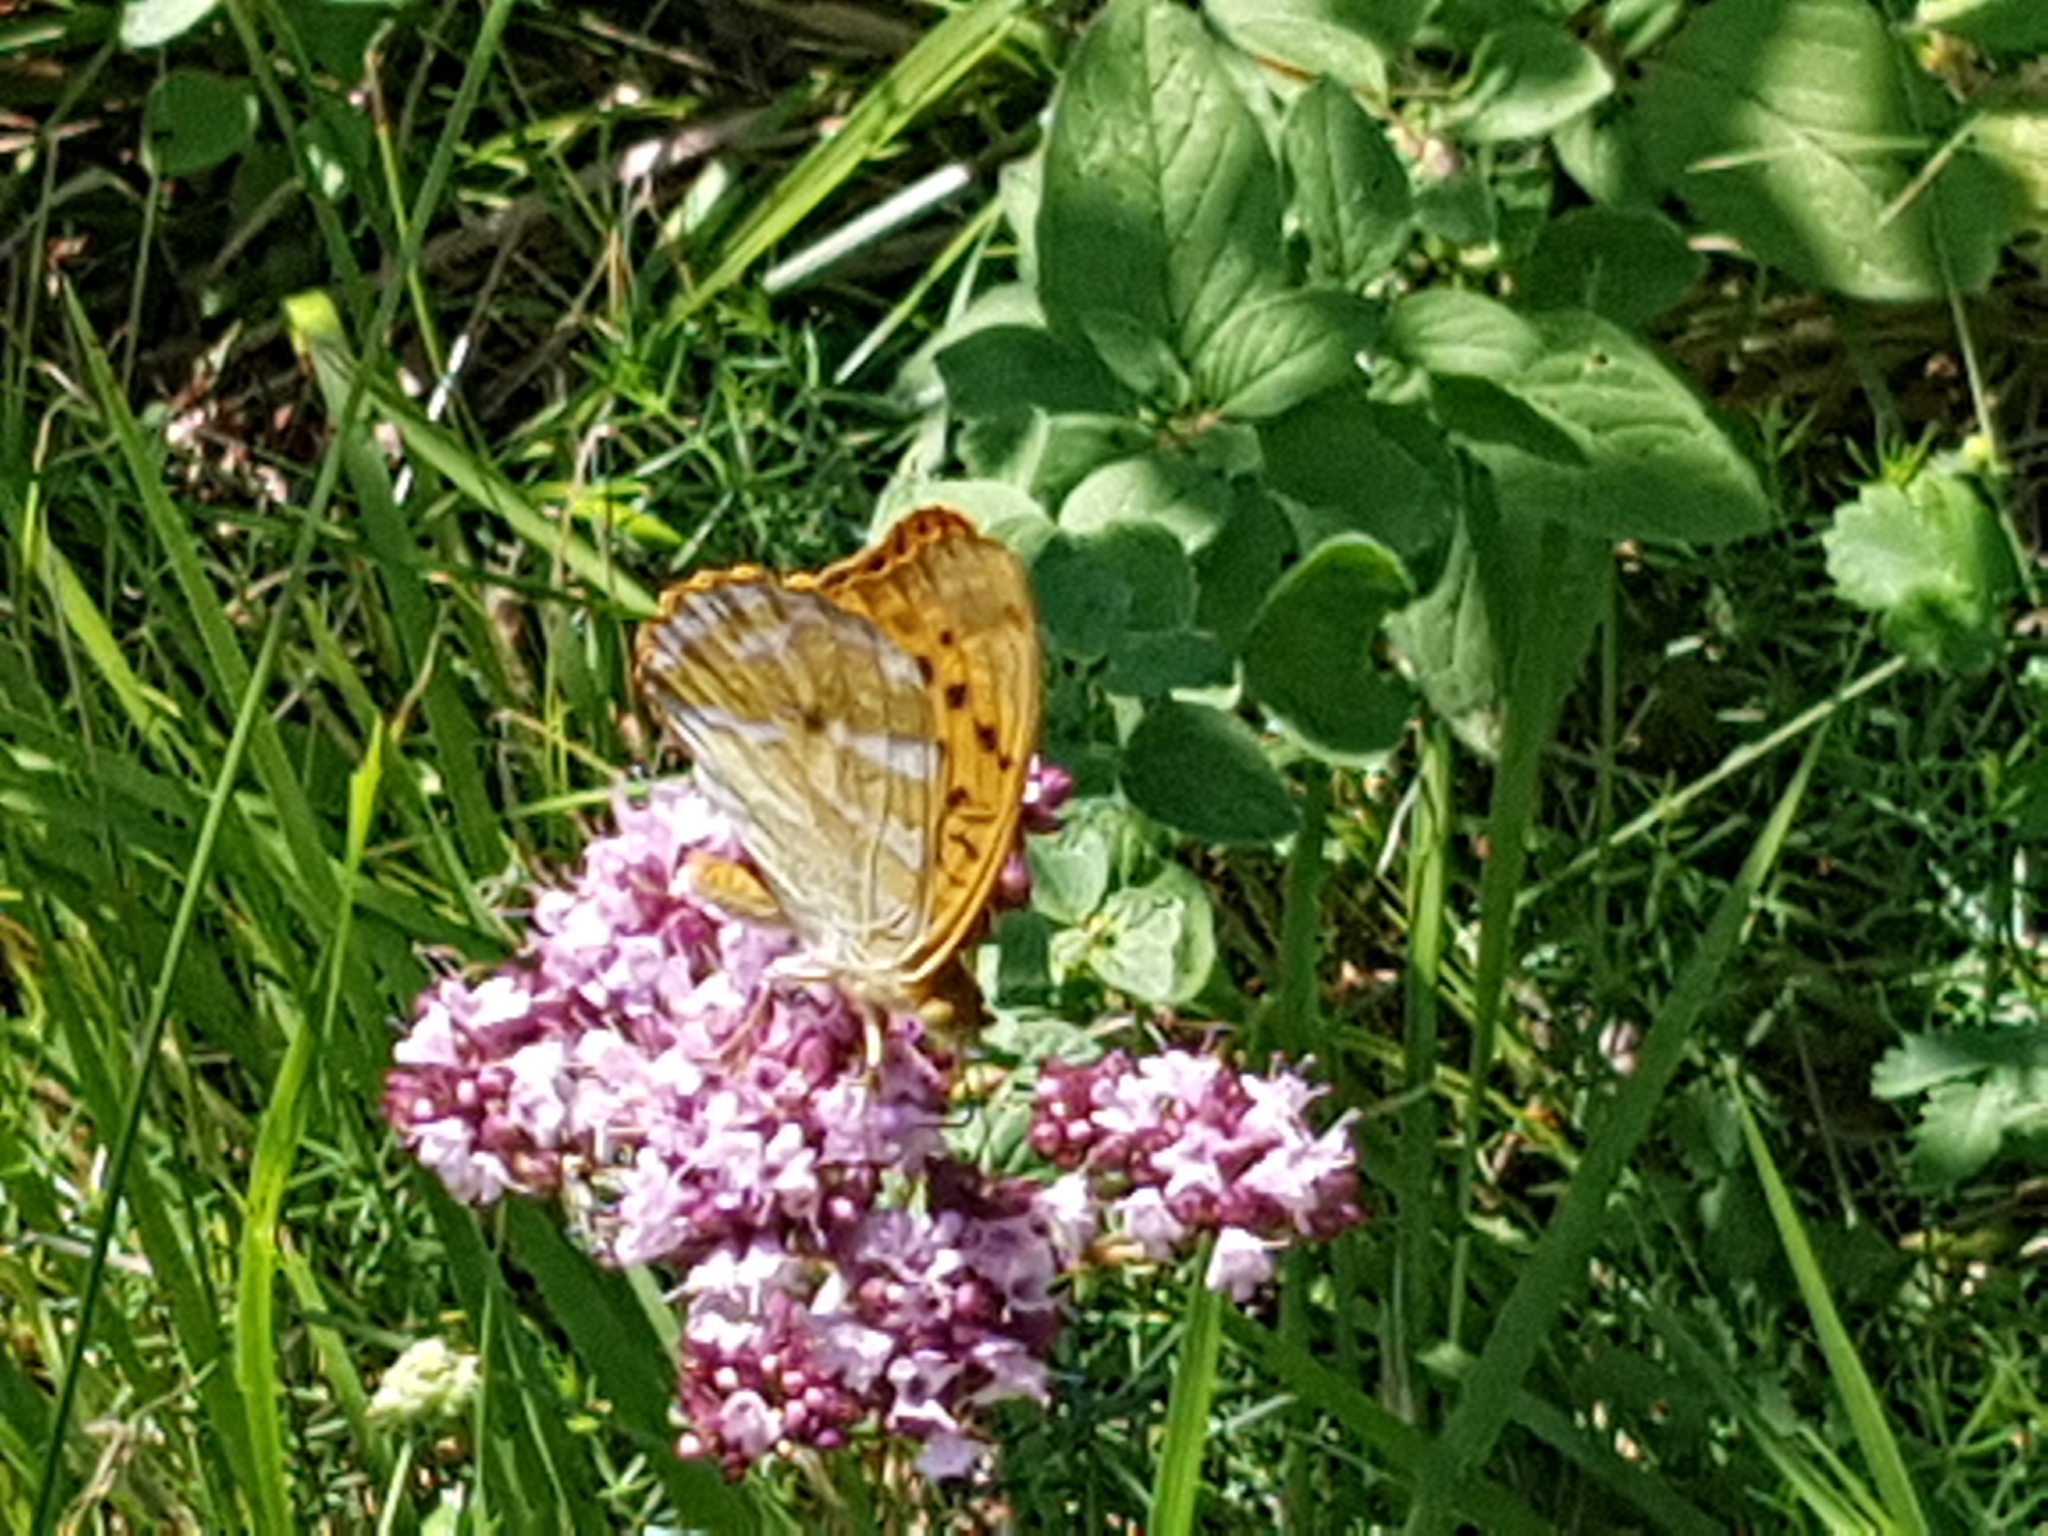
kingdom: Animalia
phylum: Arthropoda
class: Insecta
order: Lepidoptera
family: Nymphalidae
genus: Argynnis
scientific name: Argynnis paphia
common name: Silver-washed fritillary
